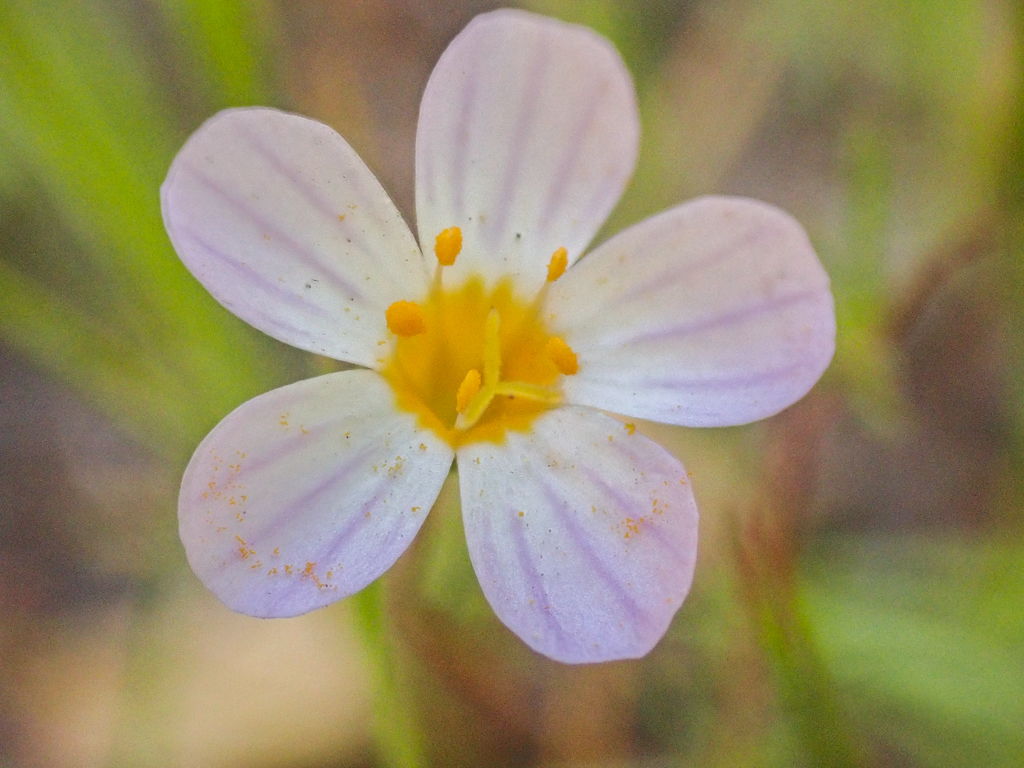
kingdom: Plantae
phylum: Tracheophyta
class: Magnoliopsida
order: Ericales
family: Polemoniaceae
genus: Leptosiphon
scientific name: Leptosiphon filipes
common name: Thread linanthus
